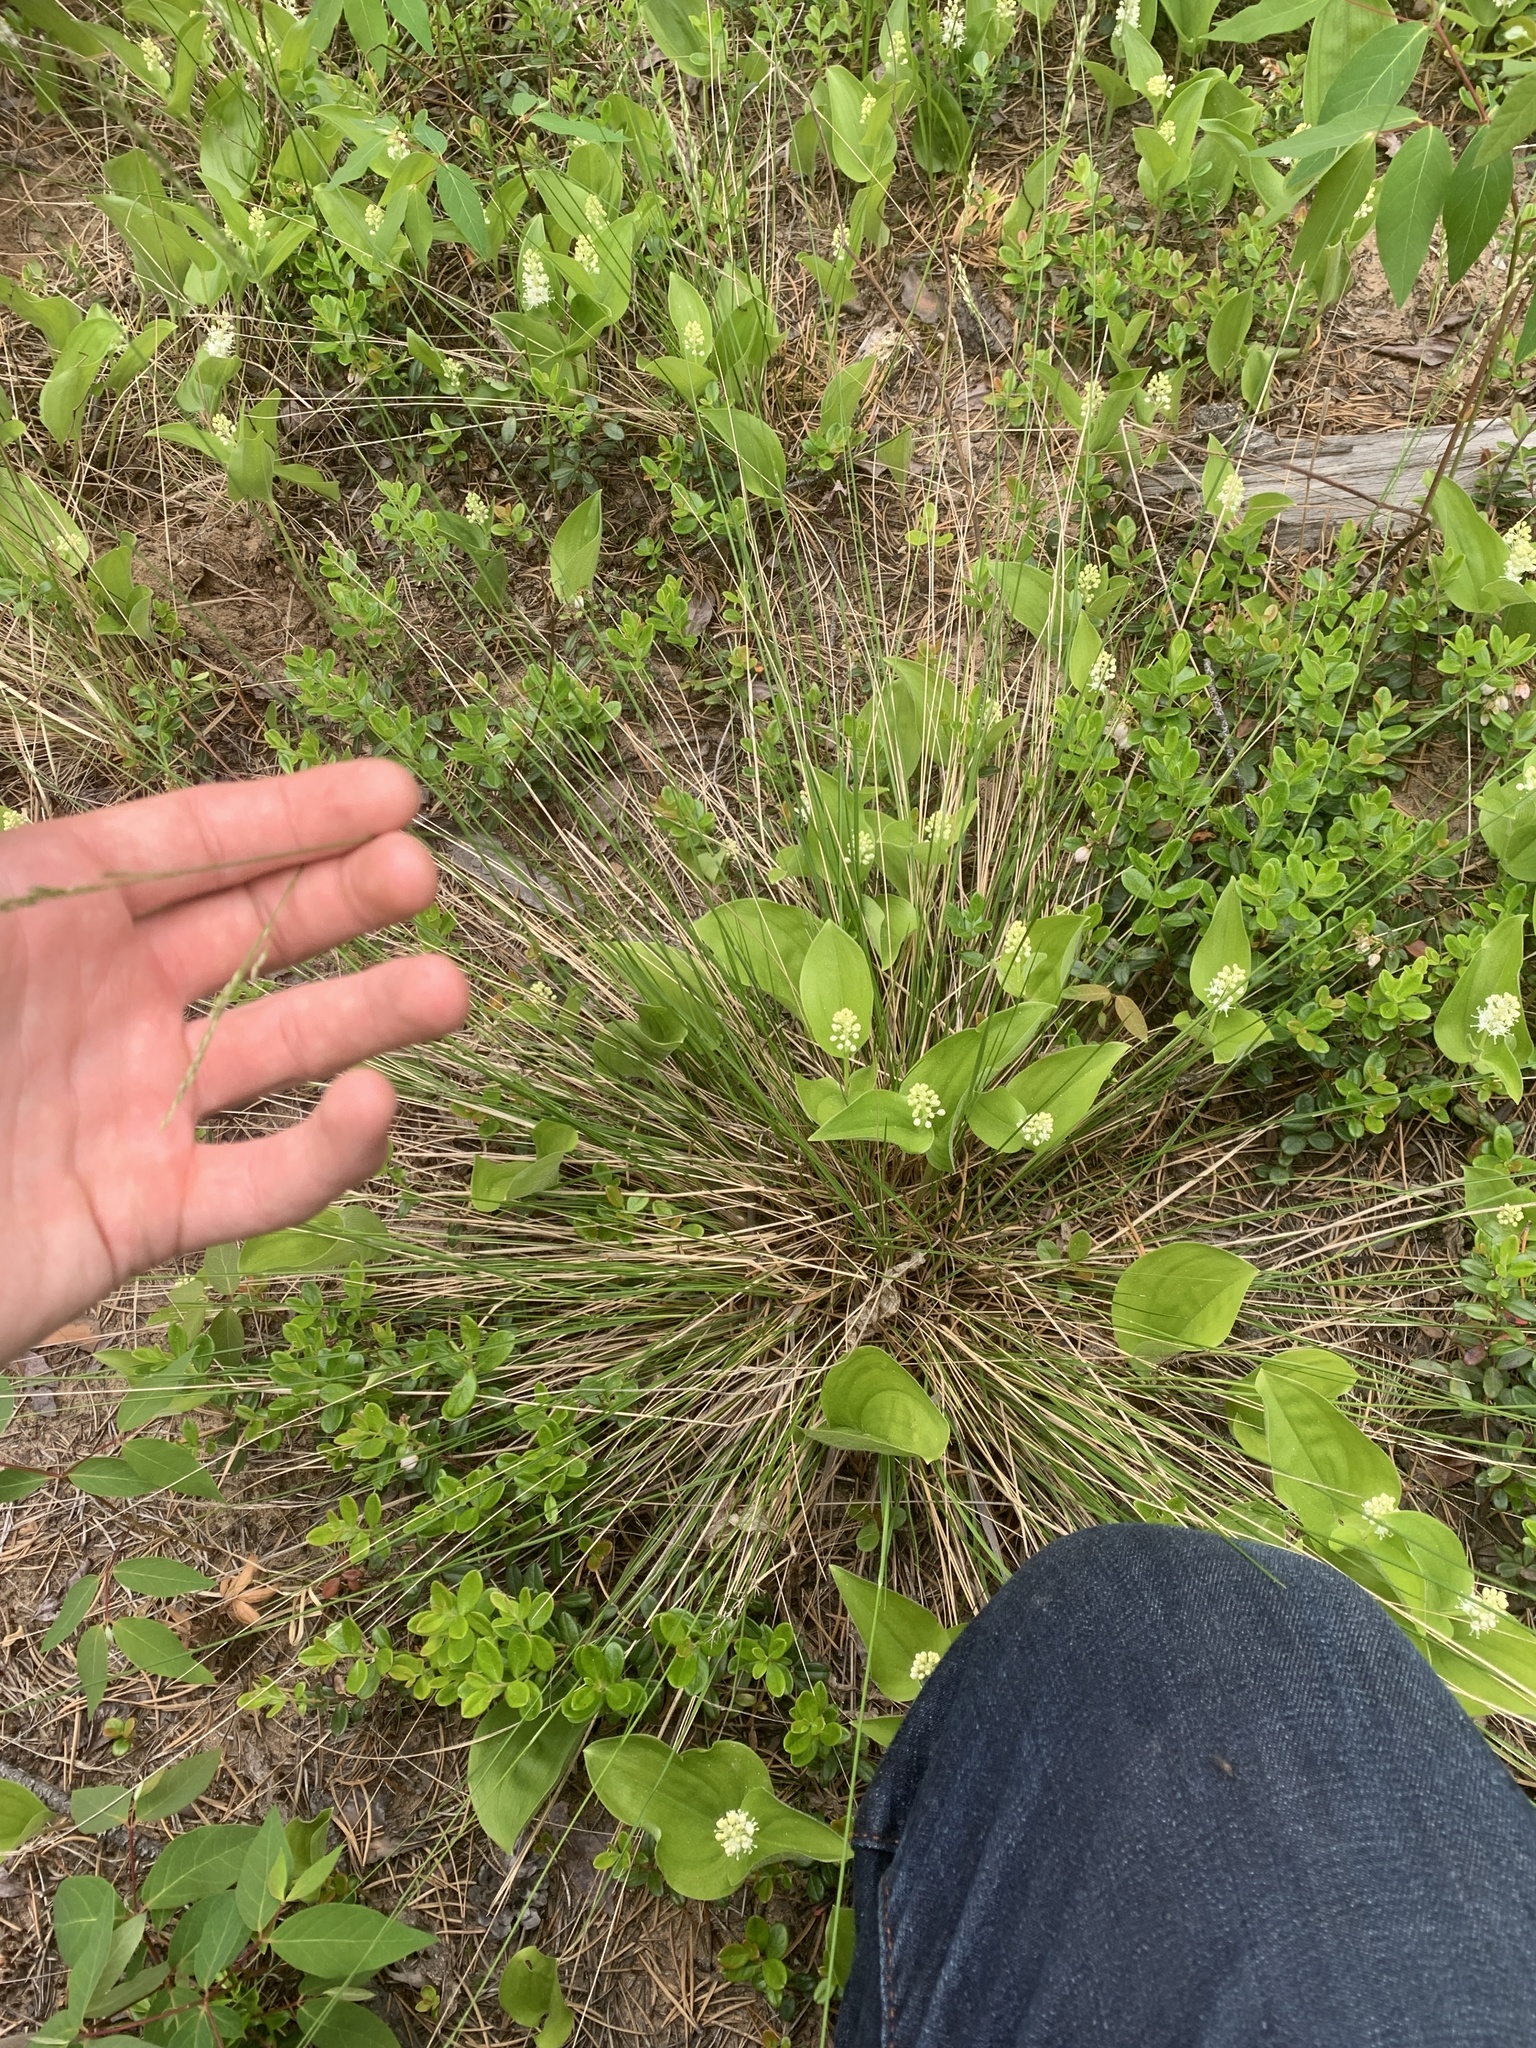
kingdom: Plantae
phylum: Tracheophyta
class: Liliopsida
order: Poales
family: Poaceae
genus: Piptatheropsis
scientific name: Piptatheropsis pungens
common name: Northern ricegrass
